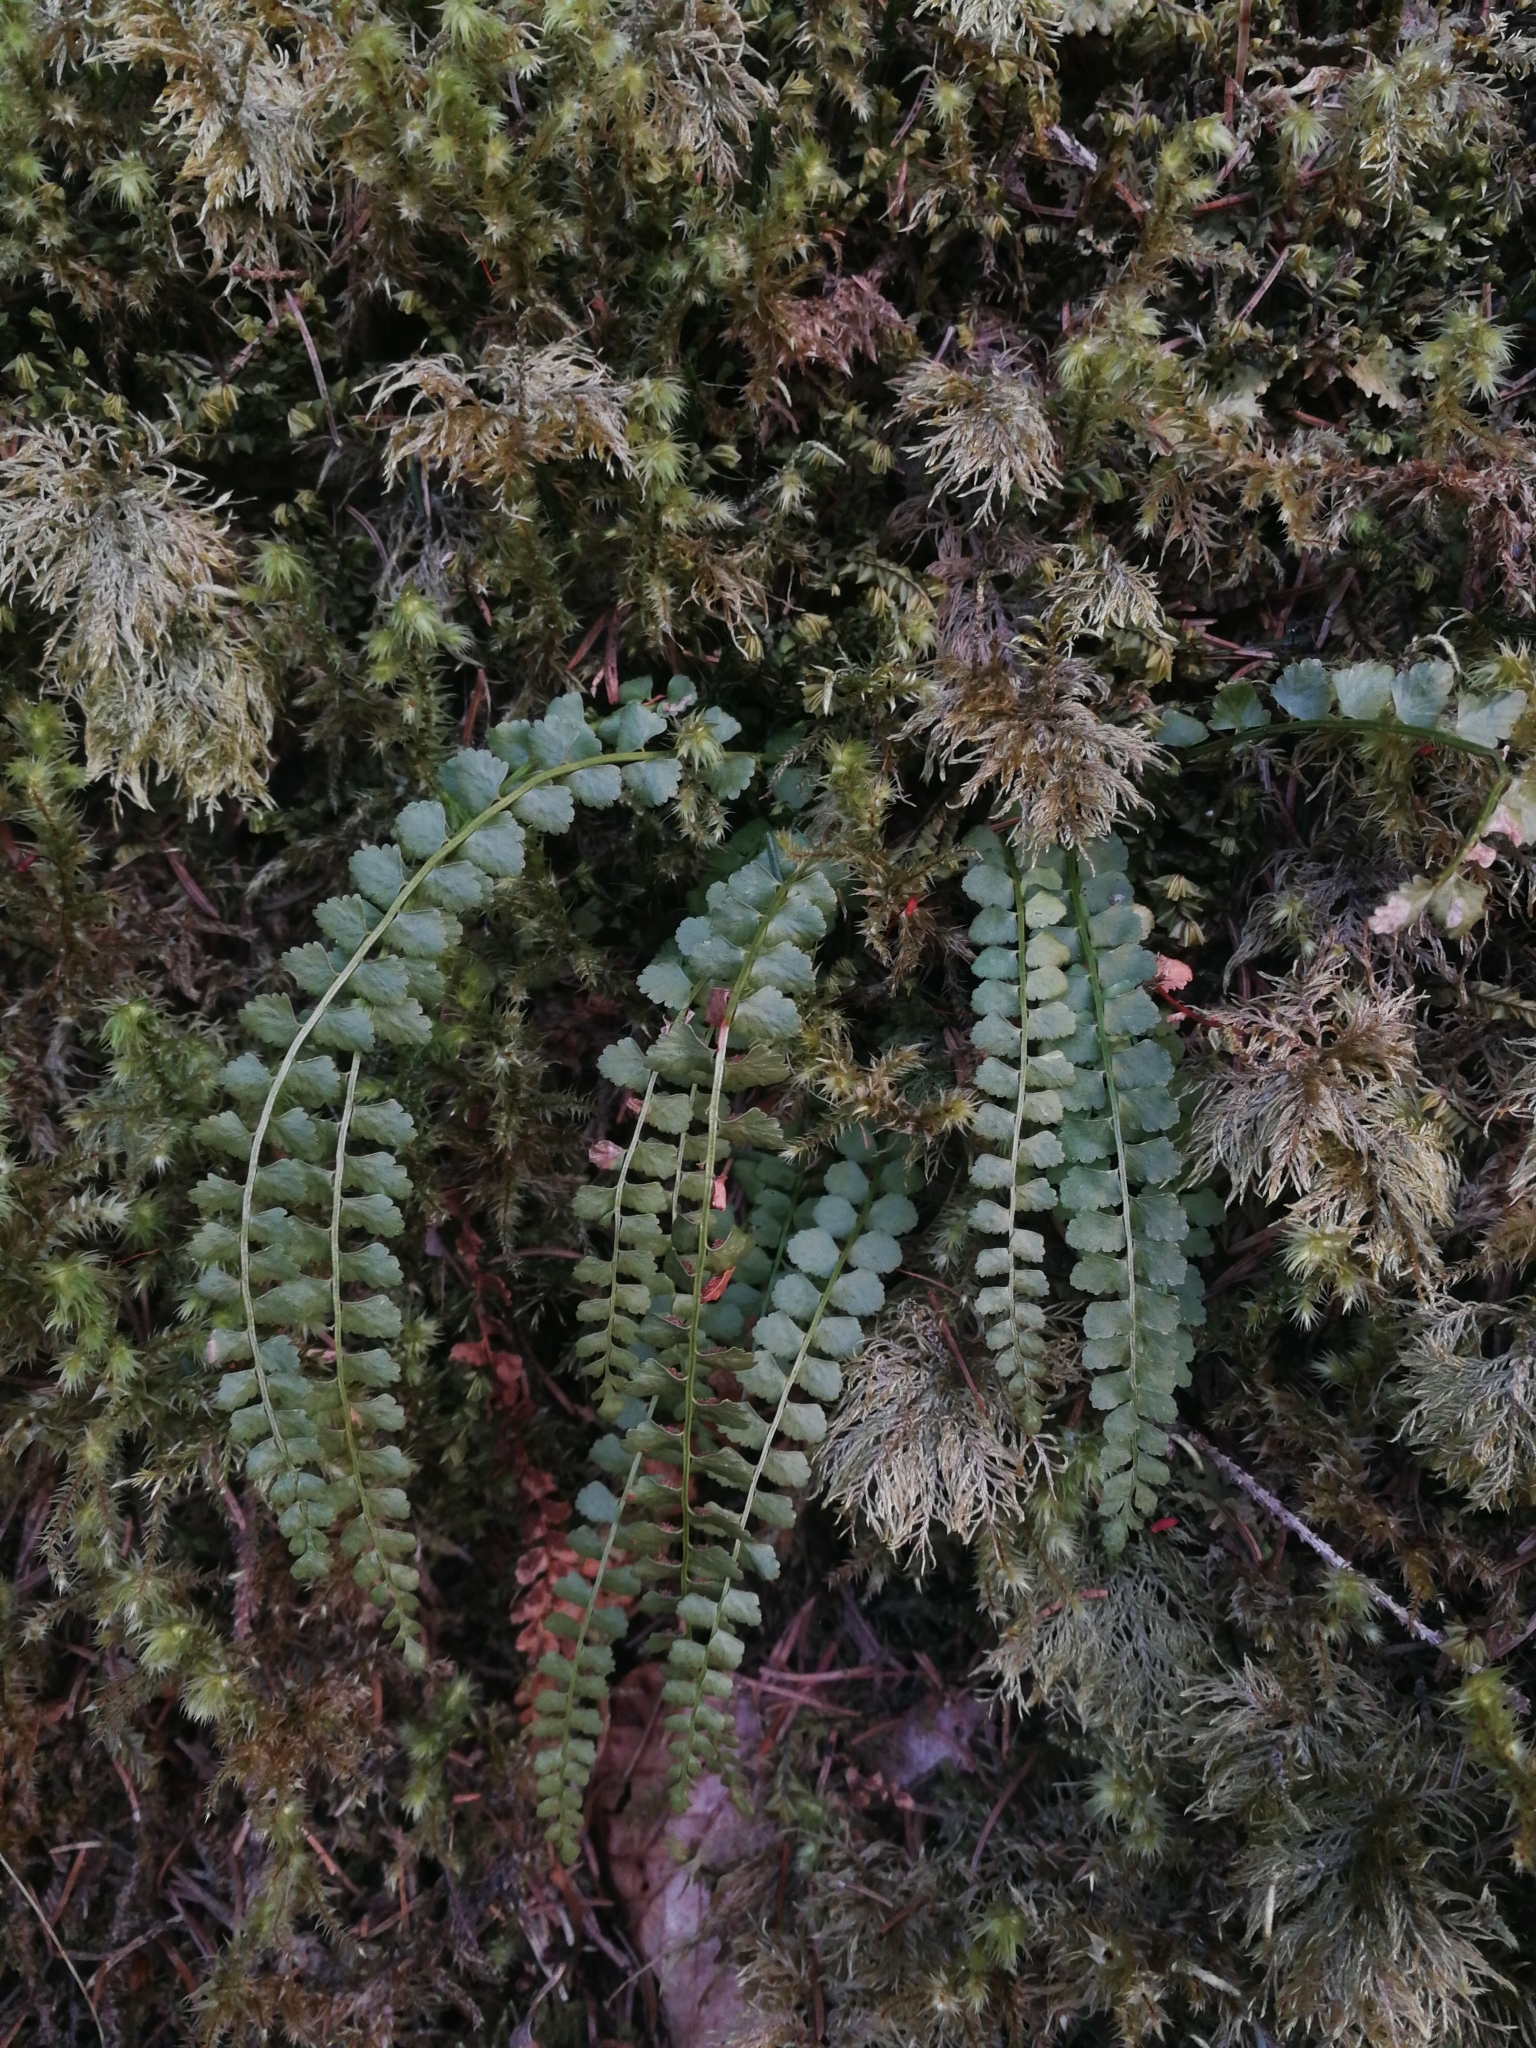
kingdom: Plantae
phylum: Tracheophyta
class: Polypodiopsida
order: Polypodiales
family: Aspleniaceae
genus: Asplenium
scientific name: Asplenium viride
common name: Green spleenwort
